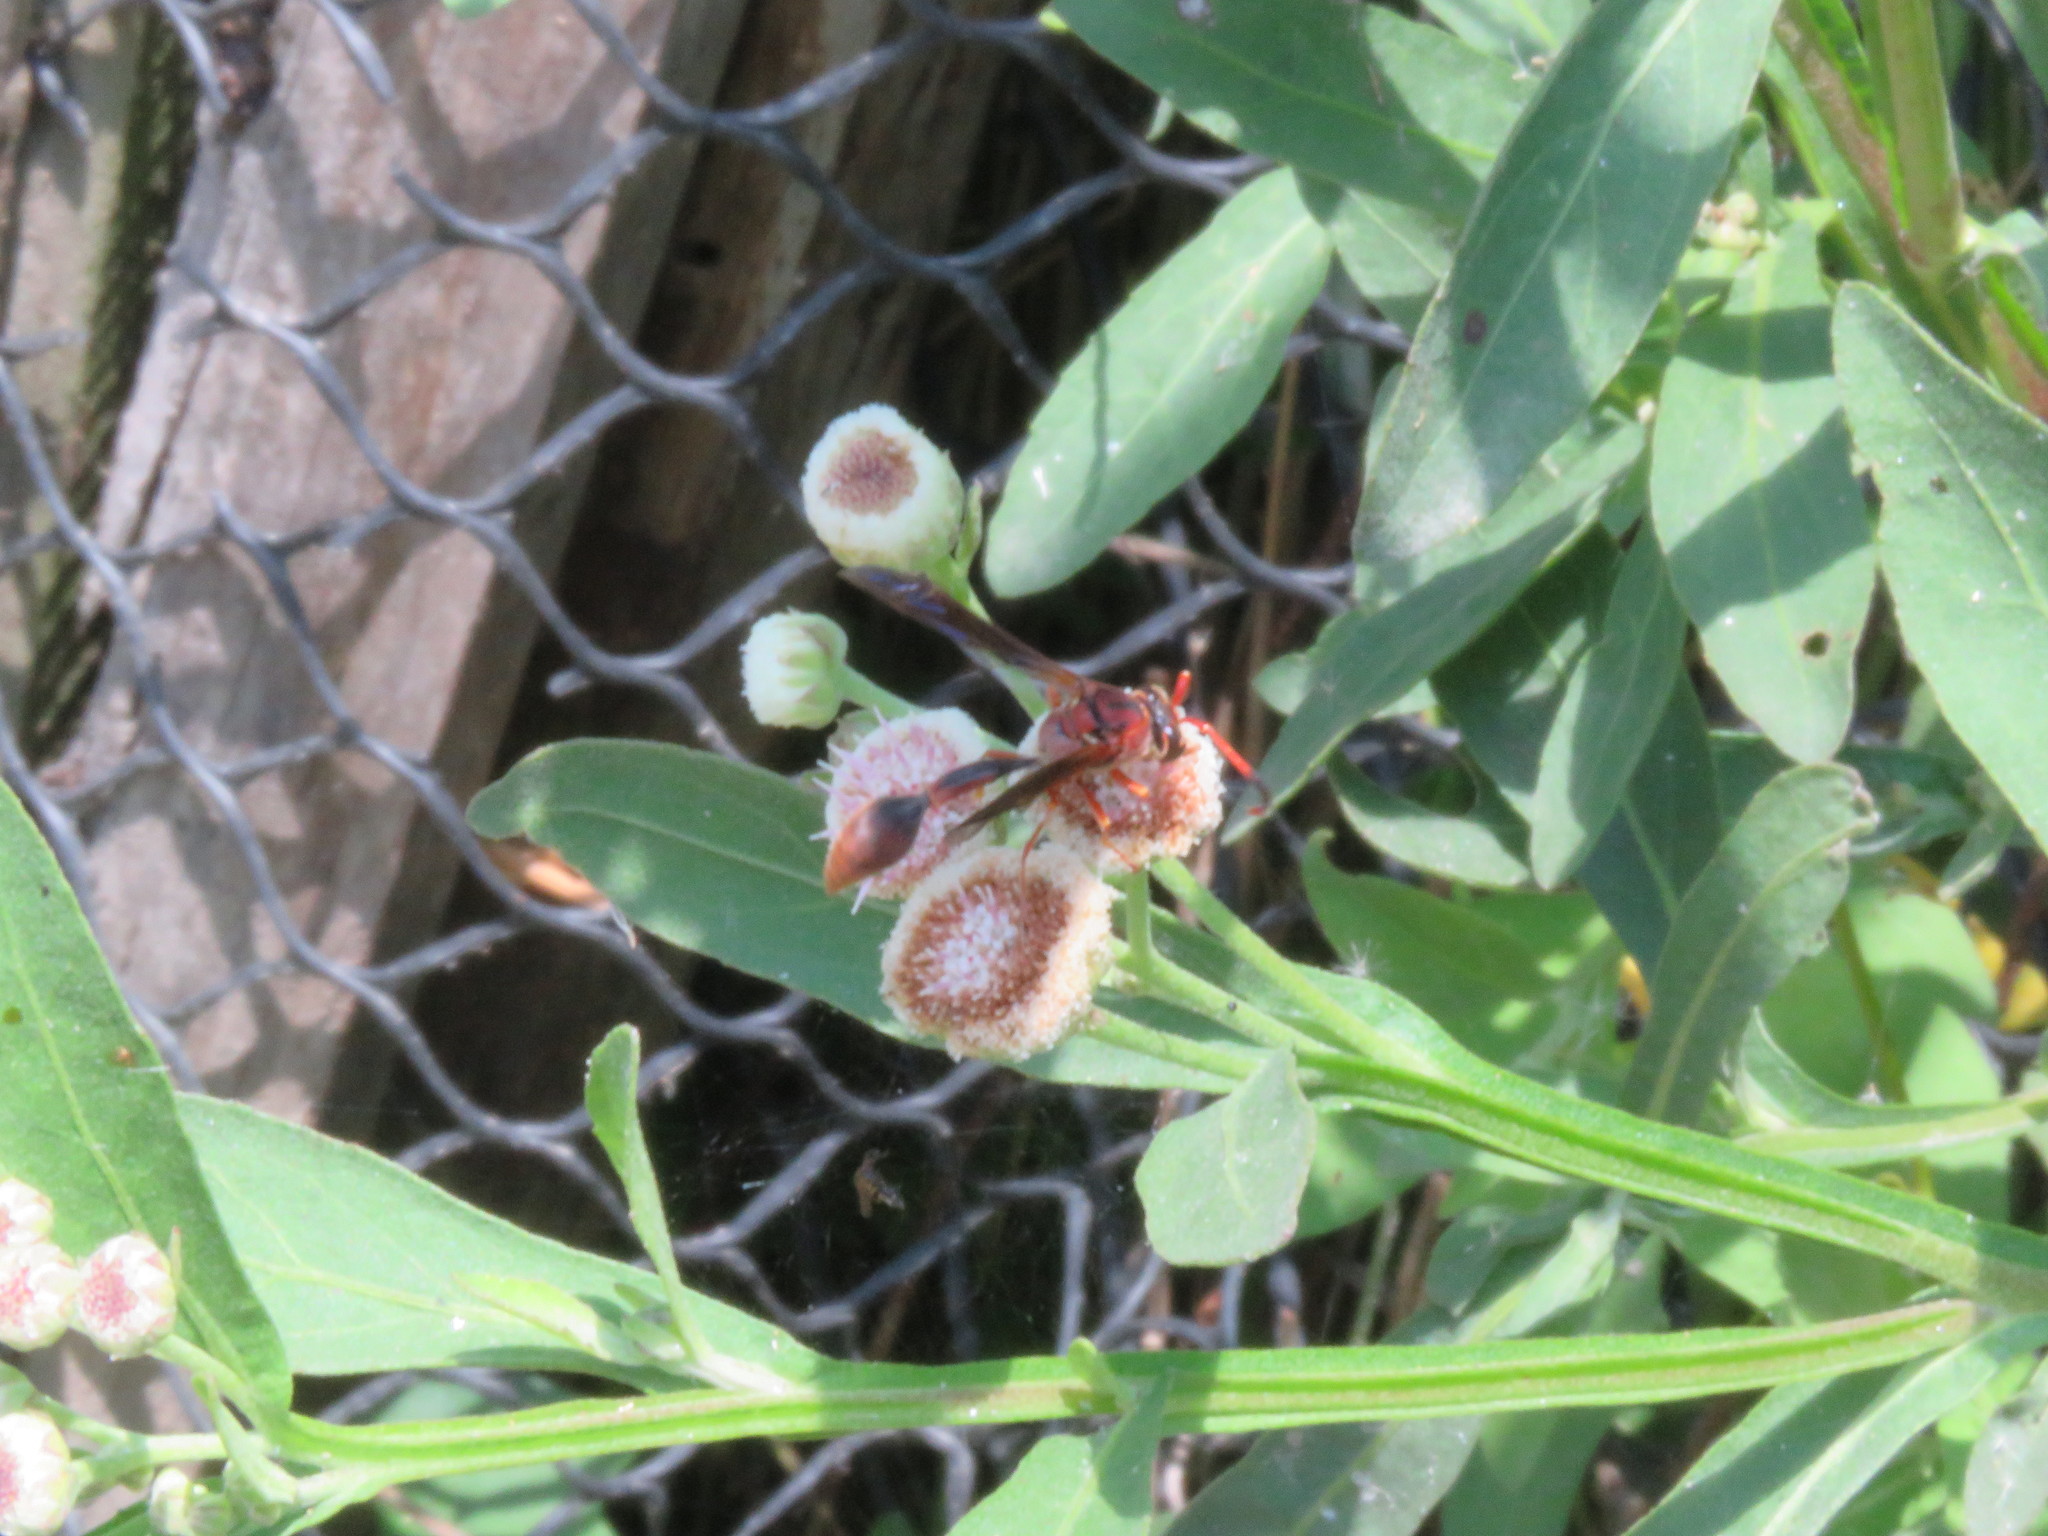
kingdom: Animalia
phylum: Arthropoda
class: Insecta
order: Hymenoptera
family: Eumenidae
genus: Zeta
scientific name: Zeta argillaceum
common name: Potter wasp
